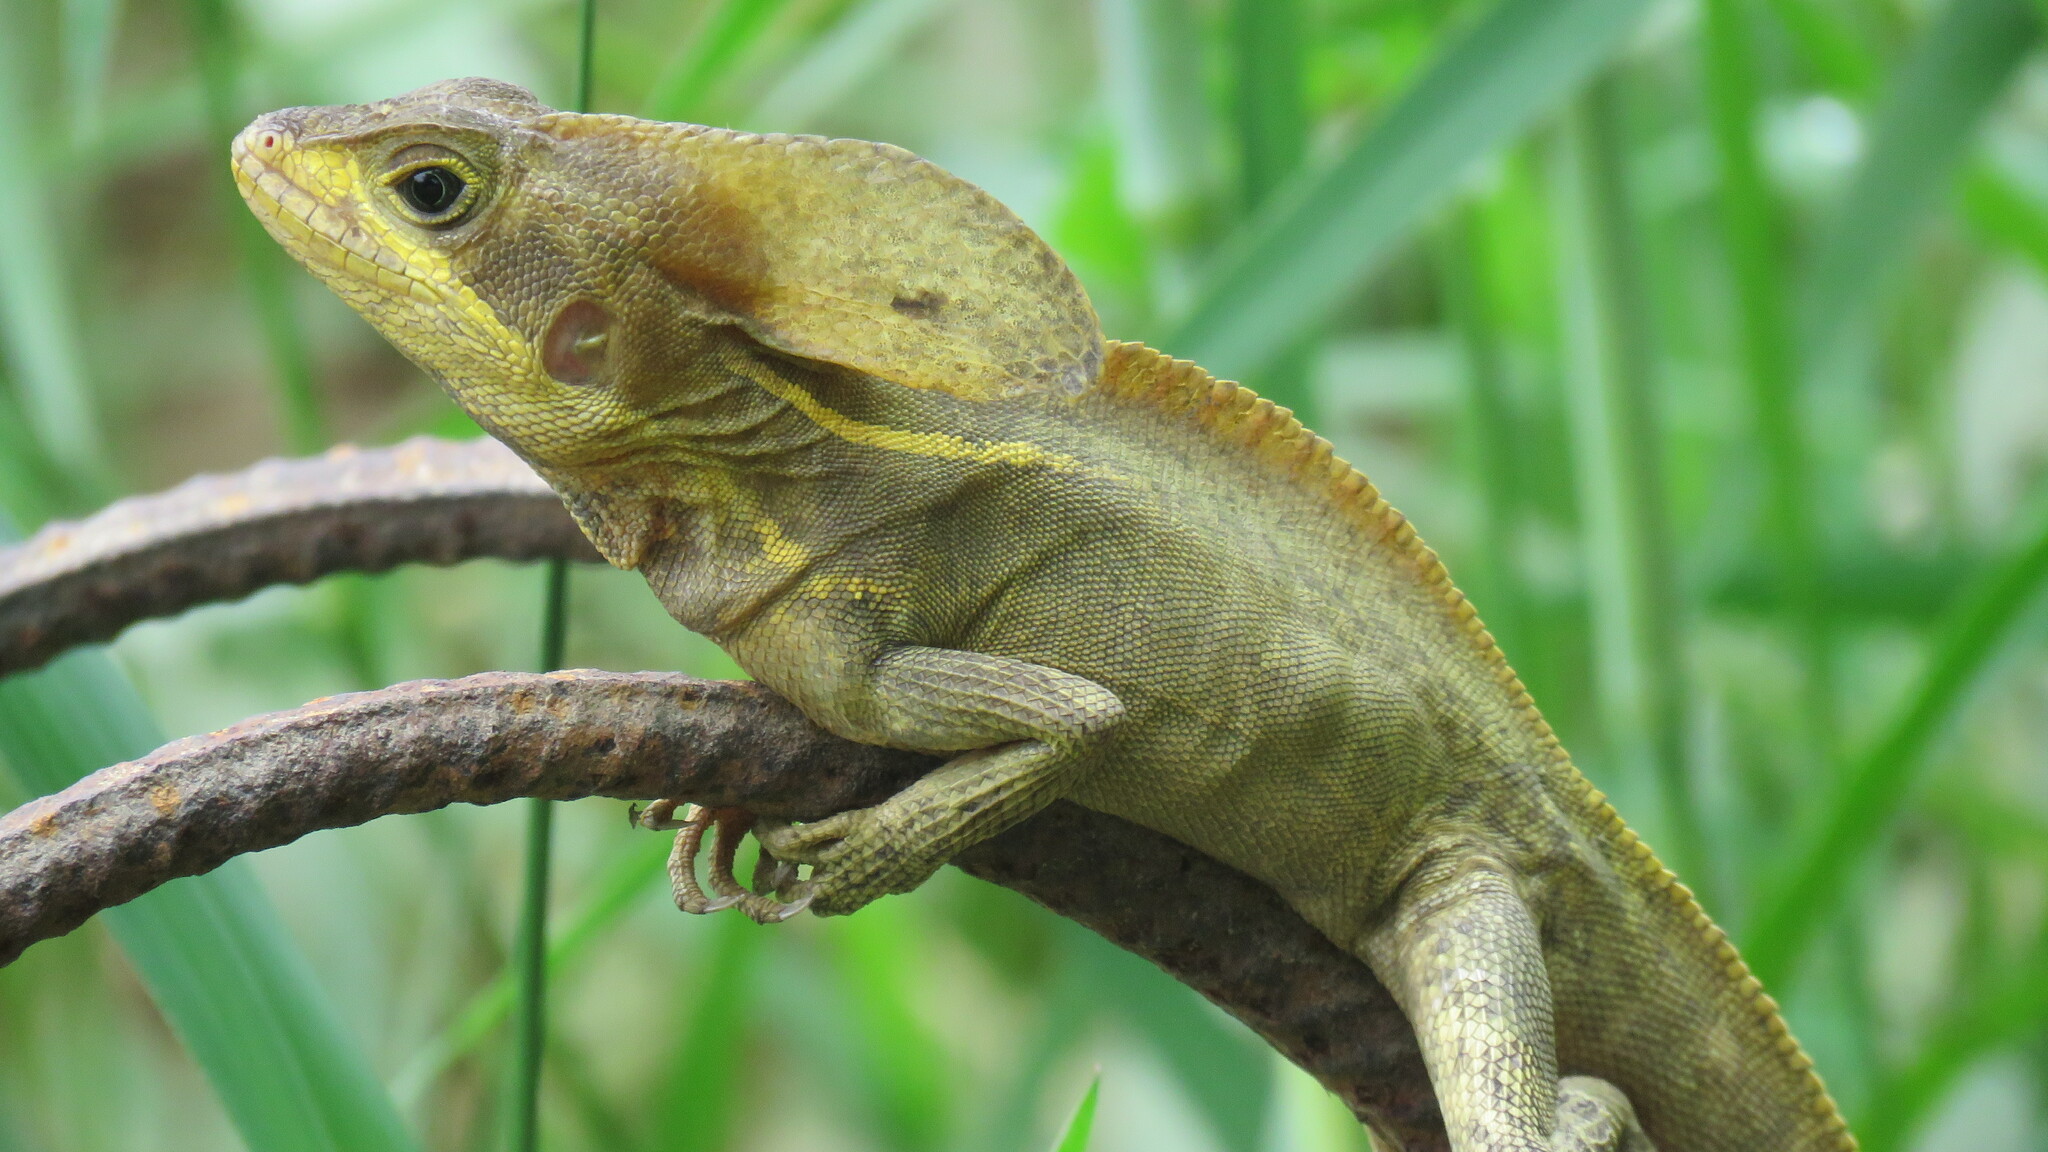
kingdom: Animalia
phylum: Chordata
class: Squamata
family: Corytophanidae
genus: Basiliscus
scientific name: Basiliscus vittatus
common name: Brown basilisk
